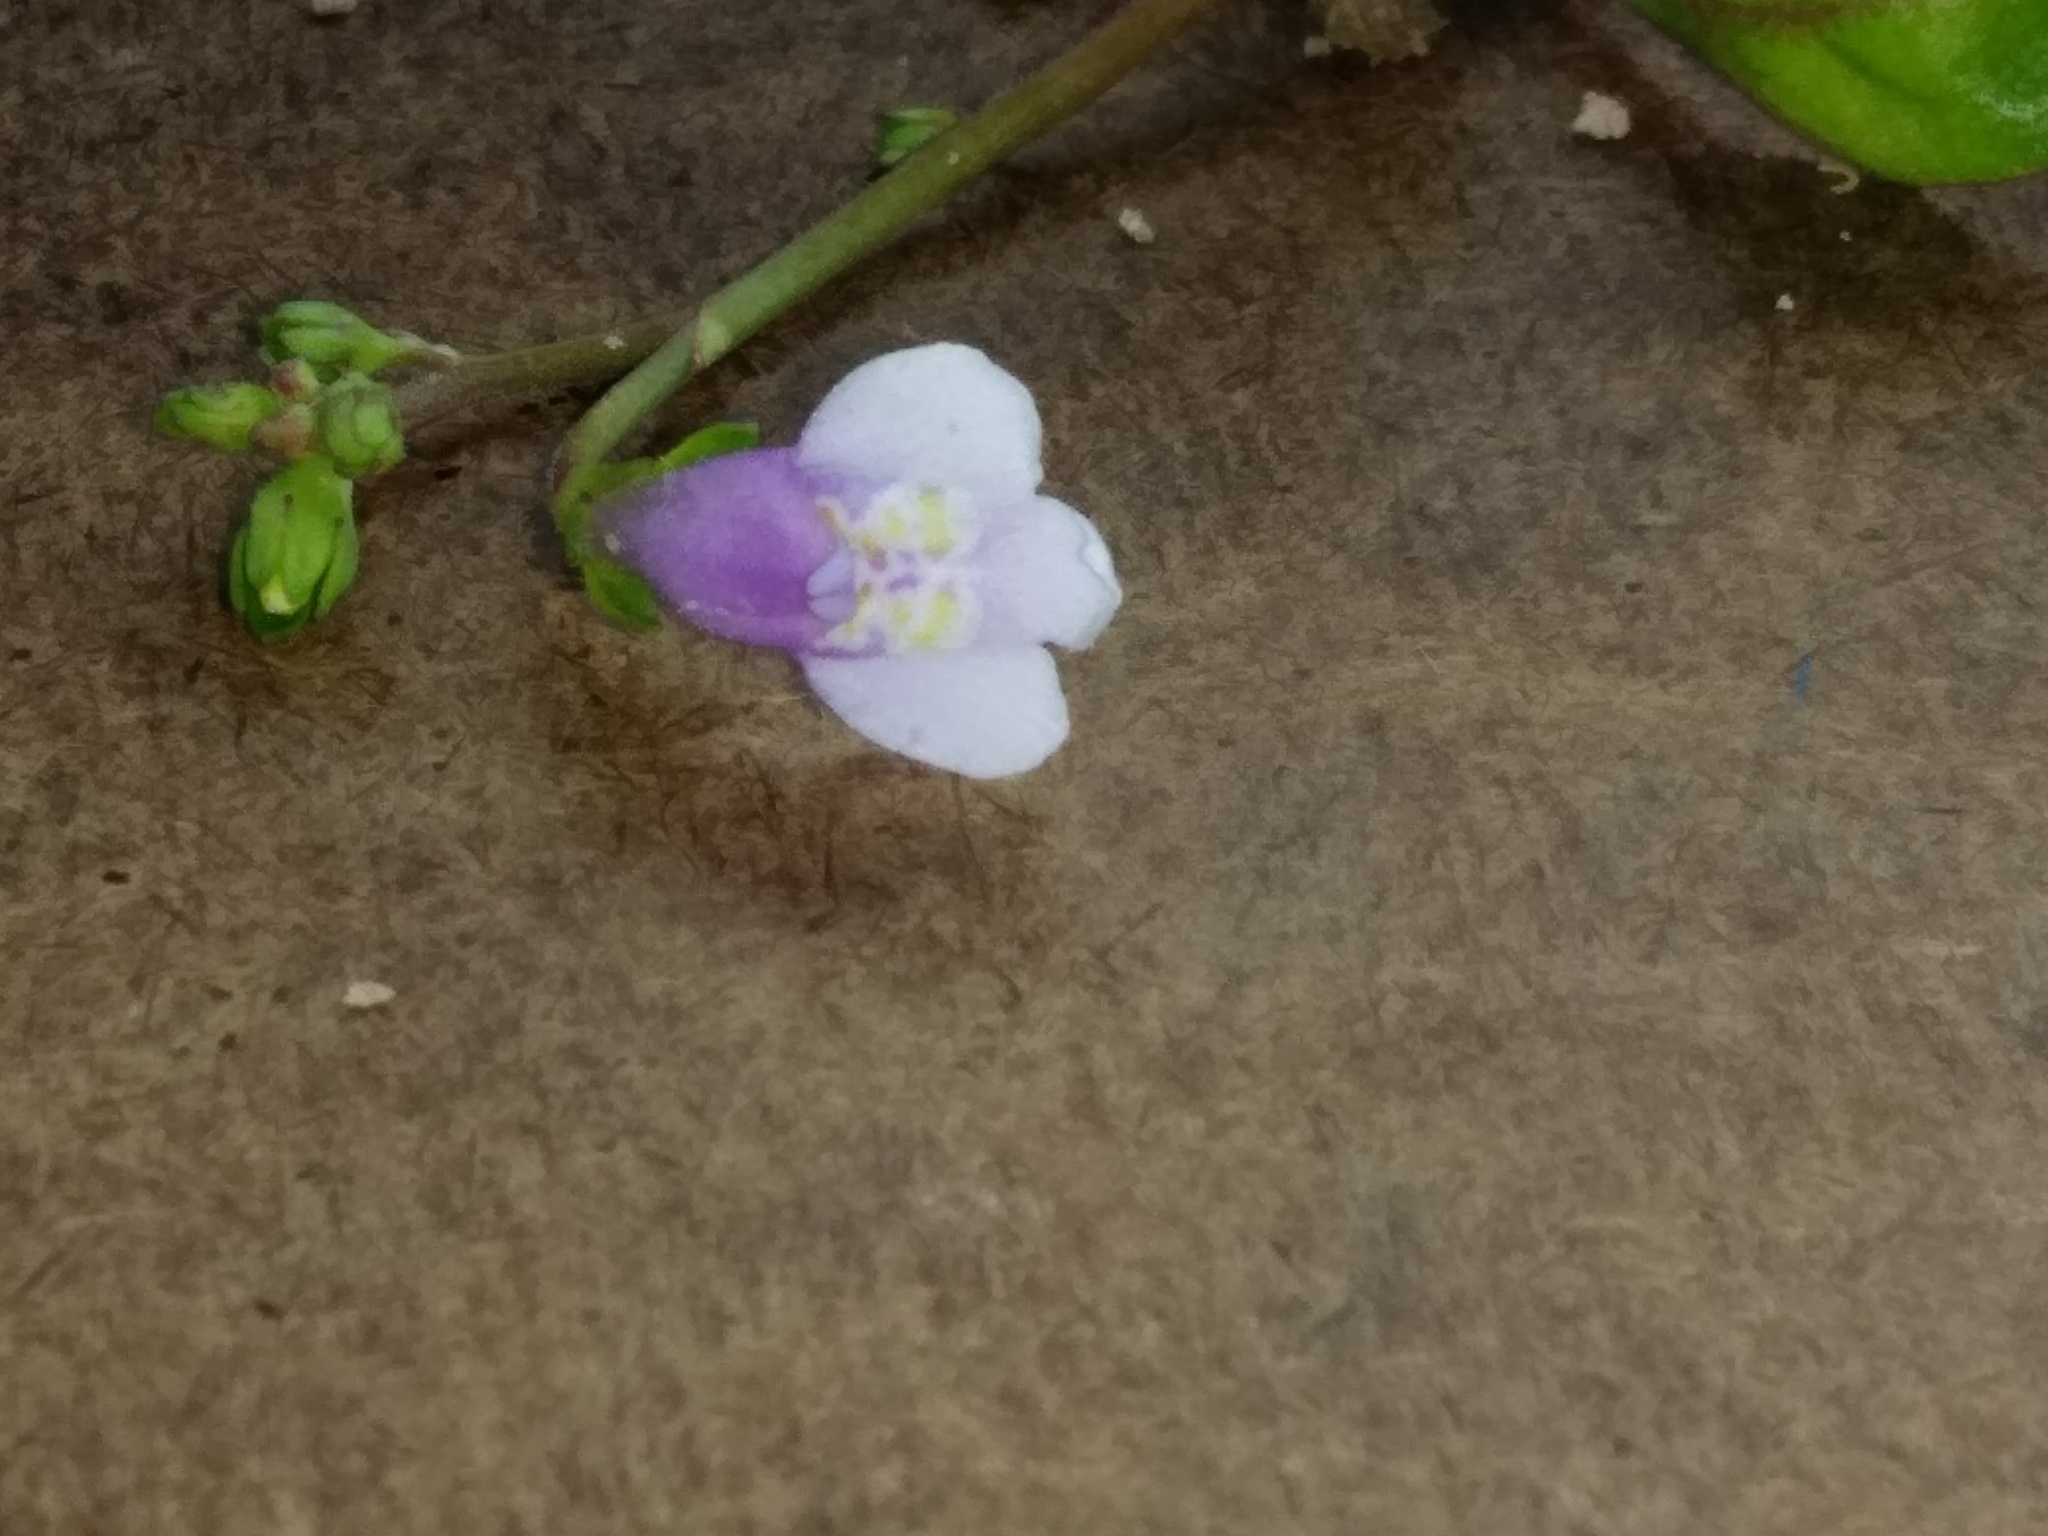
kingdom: Plantae
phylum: Tracheophyta
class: Magnoliopsida
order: Lamiales
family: Mazaceae
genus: Mazus
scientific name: Mazus pumilus
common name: Japanese mazus
